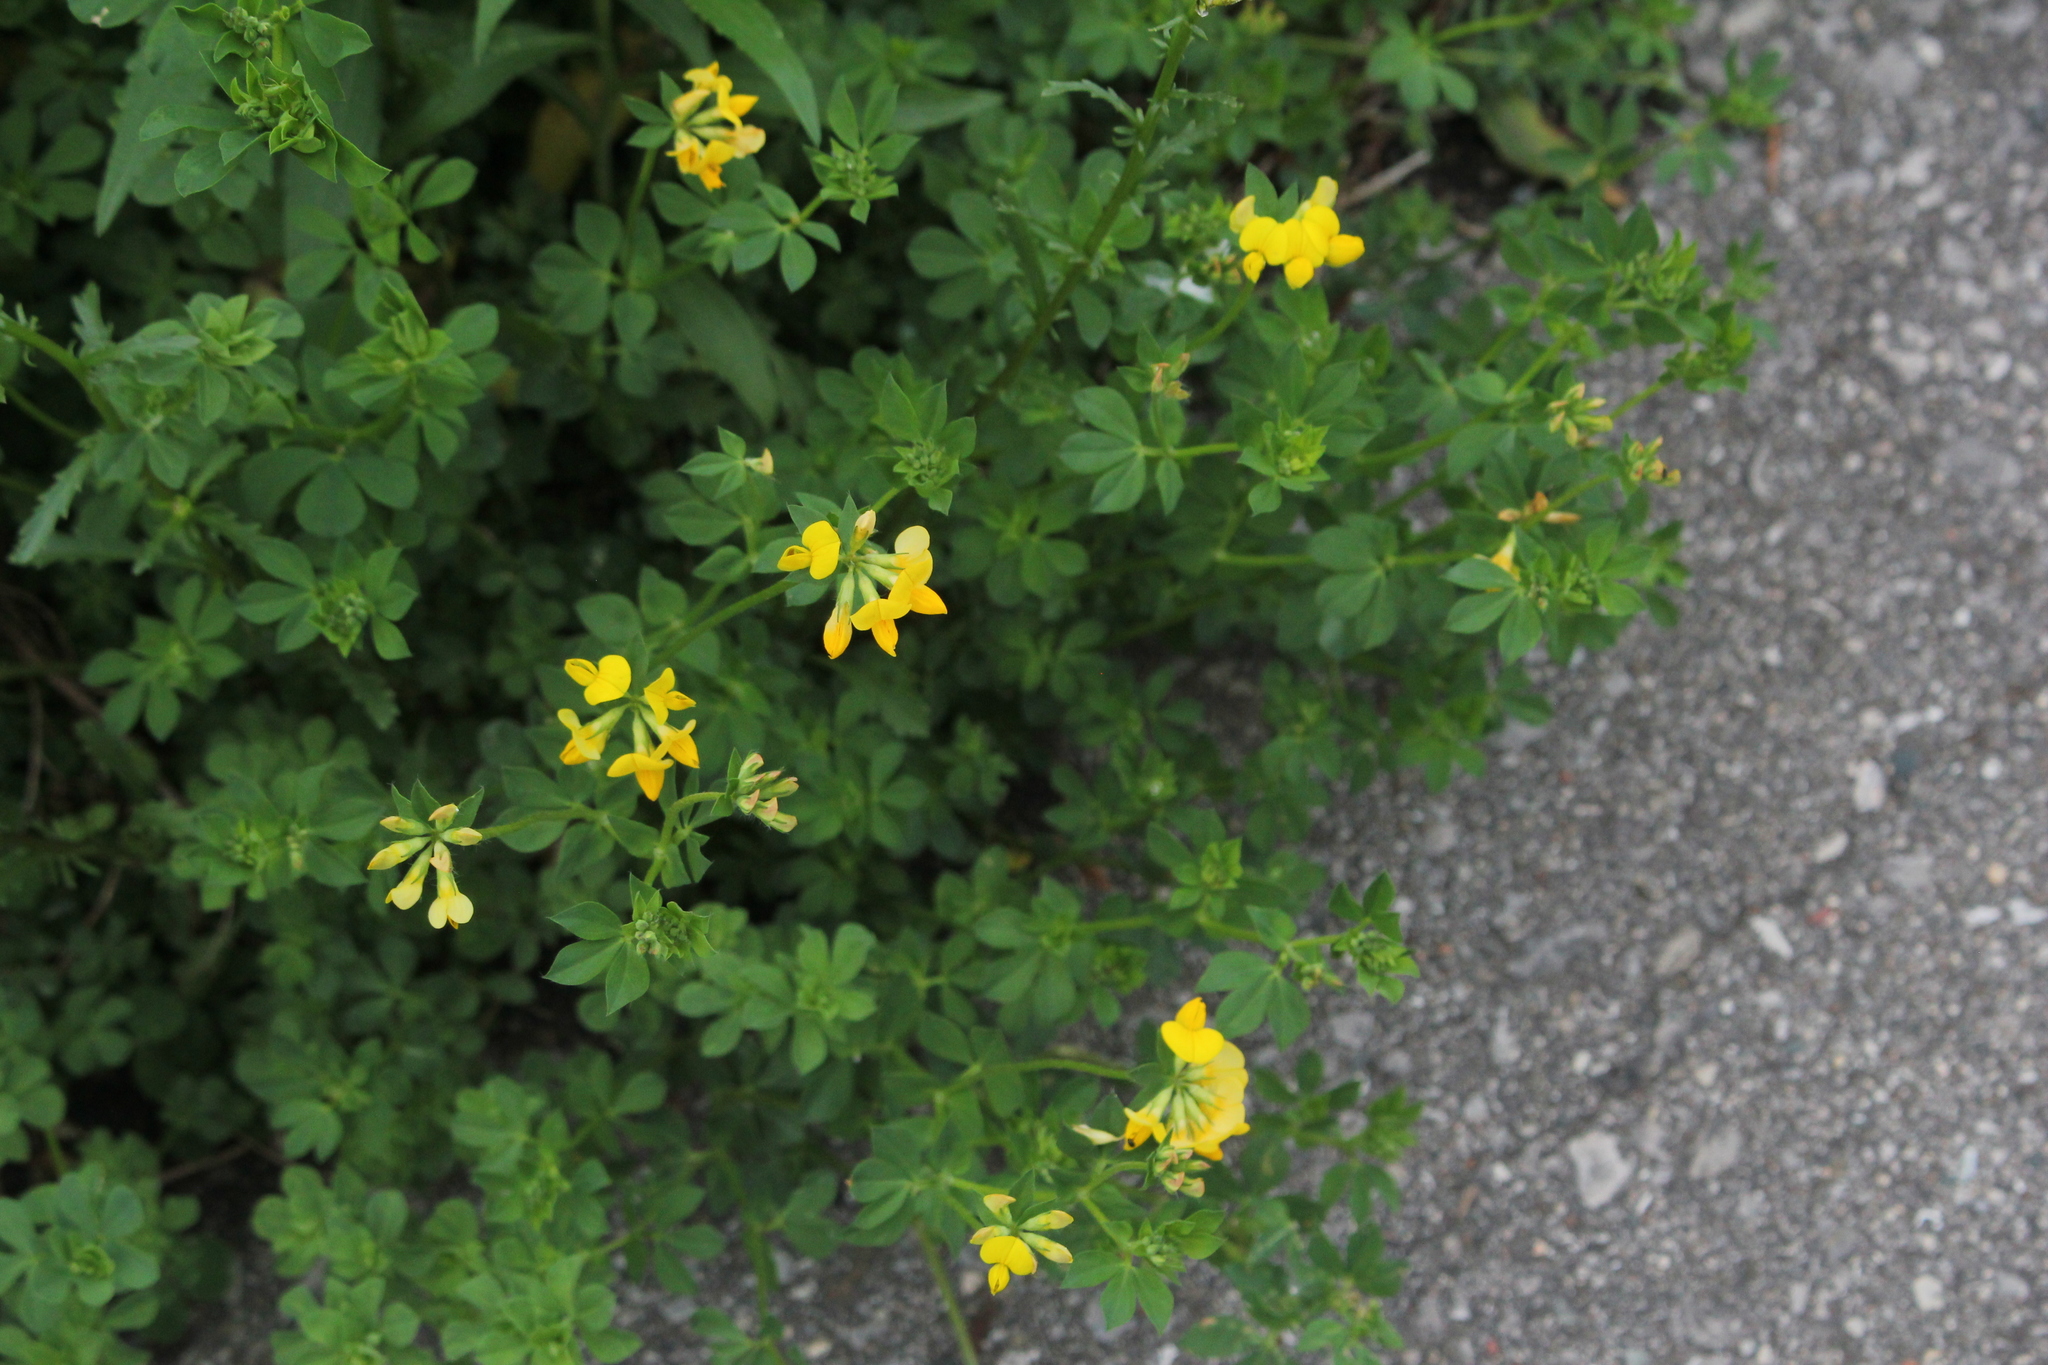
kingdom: Plantae
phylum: Tracheophyta
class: Magnoliopsida
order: Fabales
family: Fabaceae
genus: Lotus
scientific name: Lotus corniculatus
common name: Common bird's-foot-trefoil
